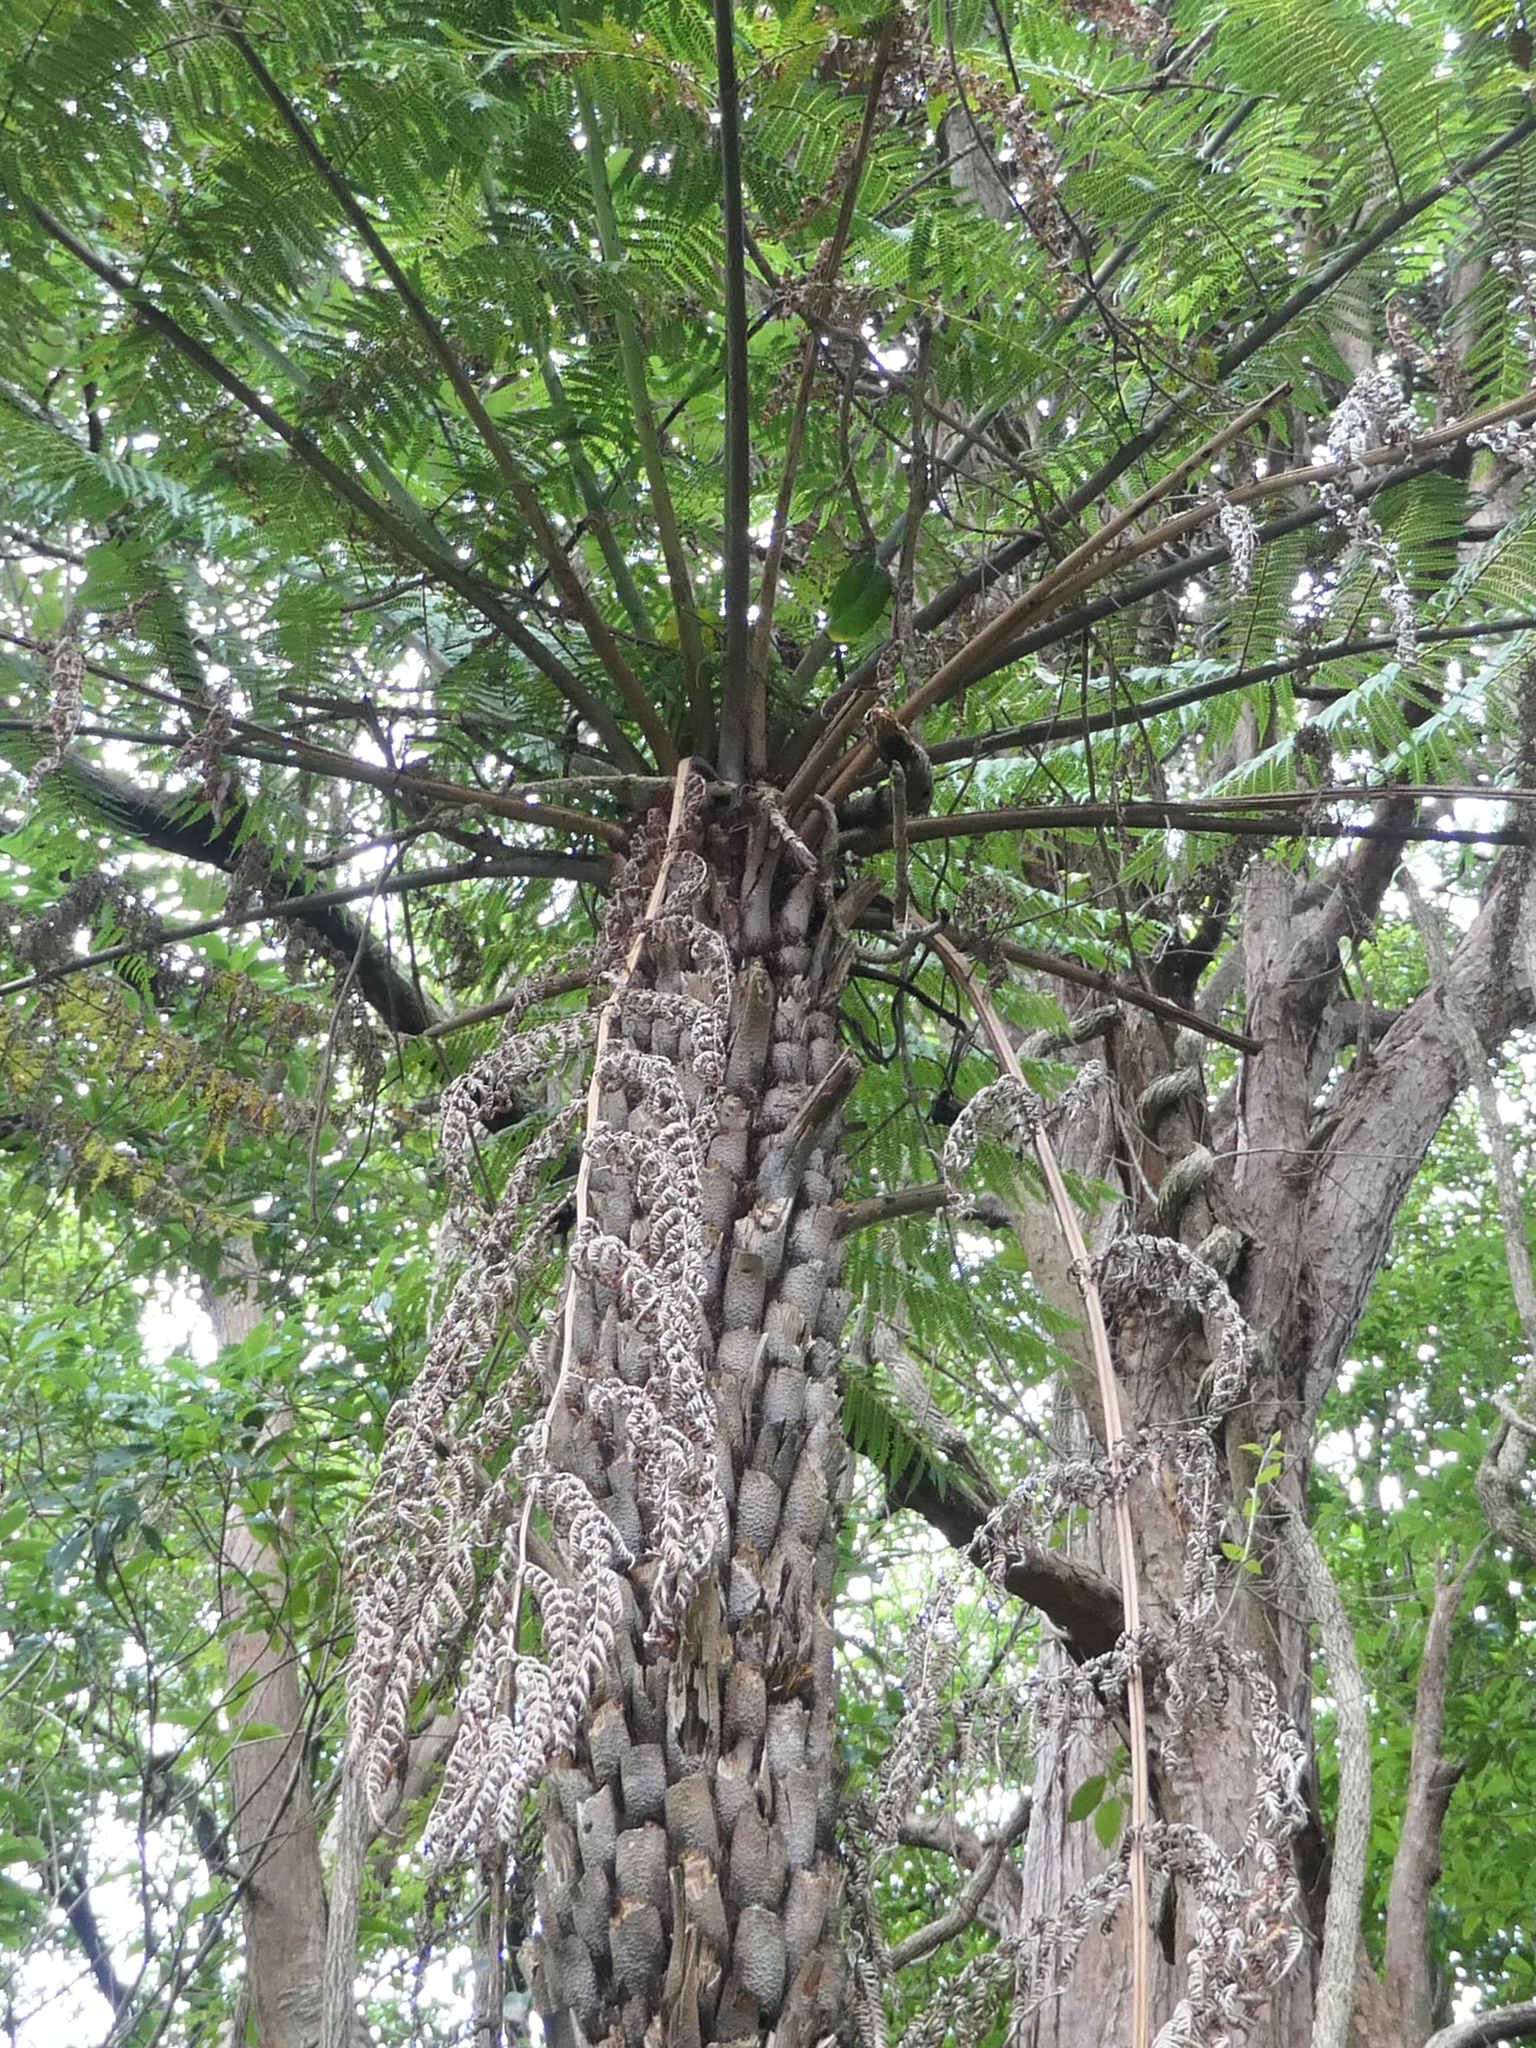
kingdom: Plantae
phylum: Tracheophyta
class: Polypodiopsida
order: Cyatheales
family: Cyatheaceae
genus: Alsophila
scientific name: Alsophila australis
